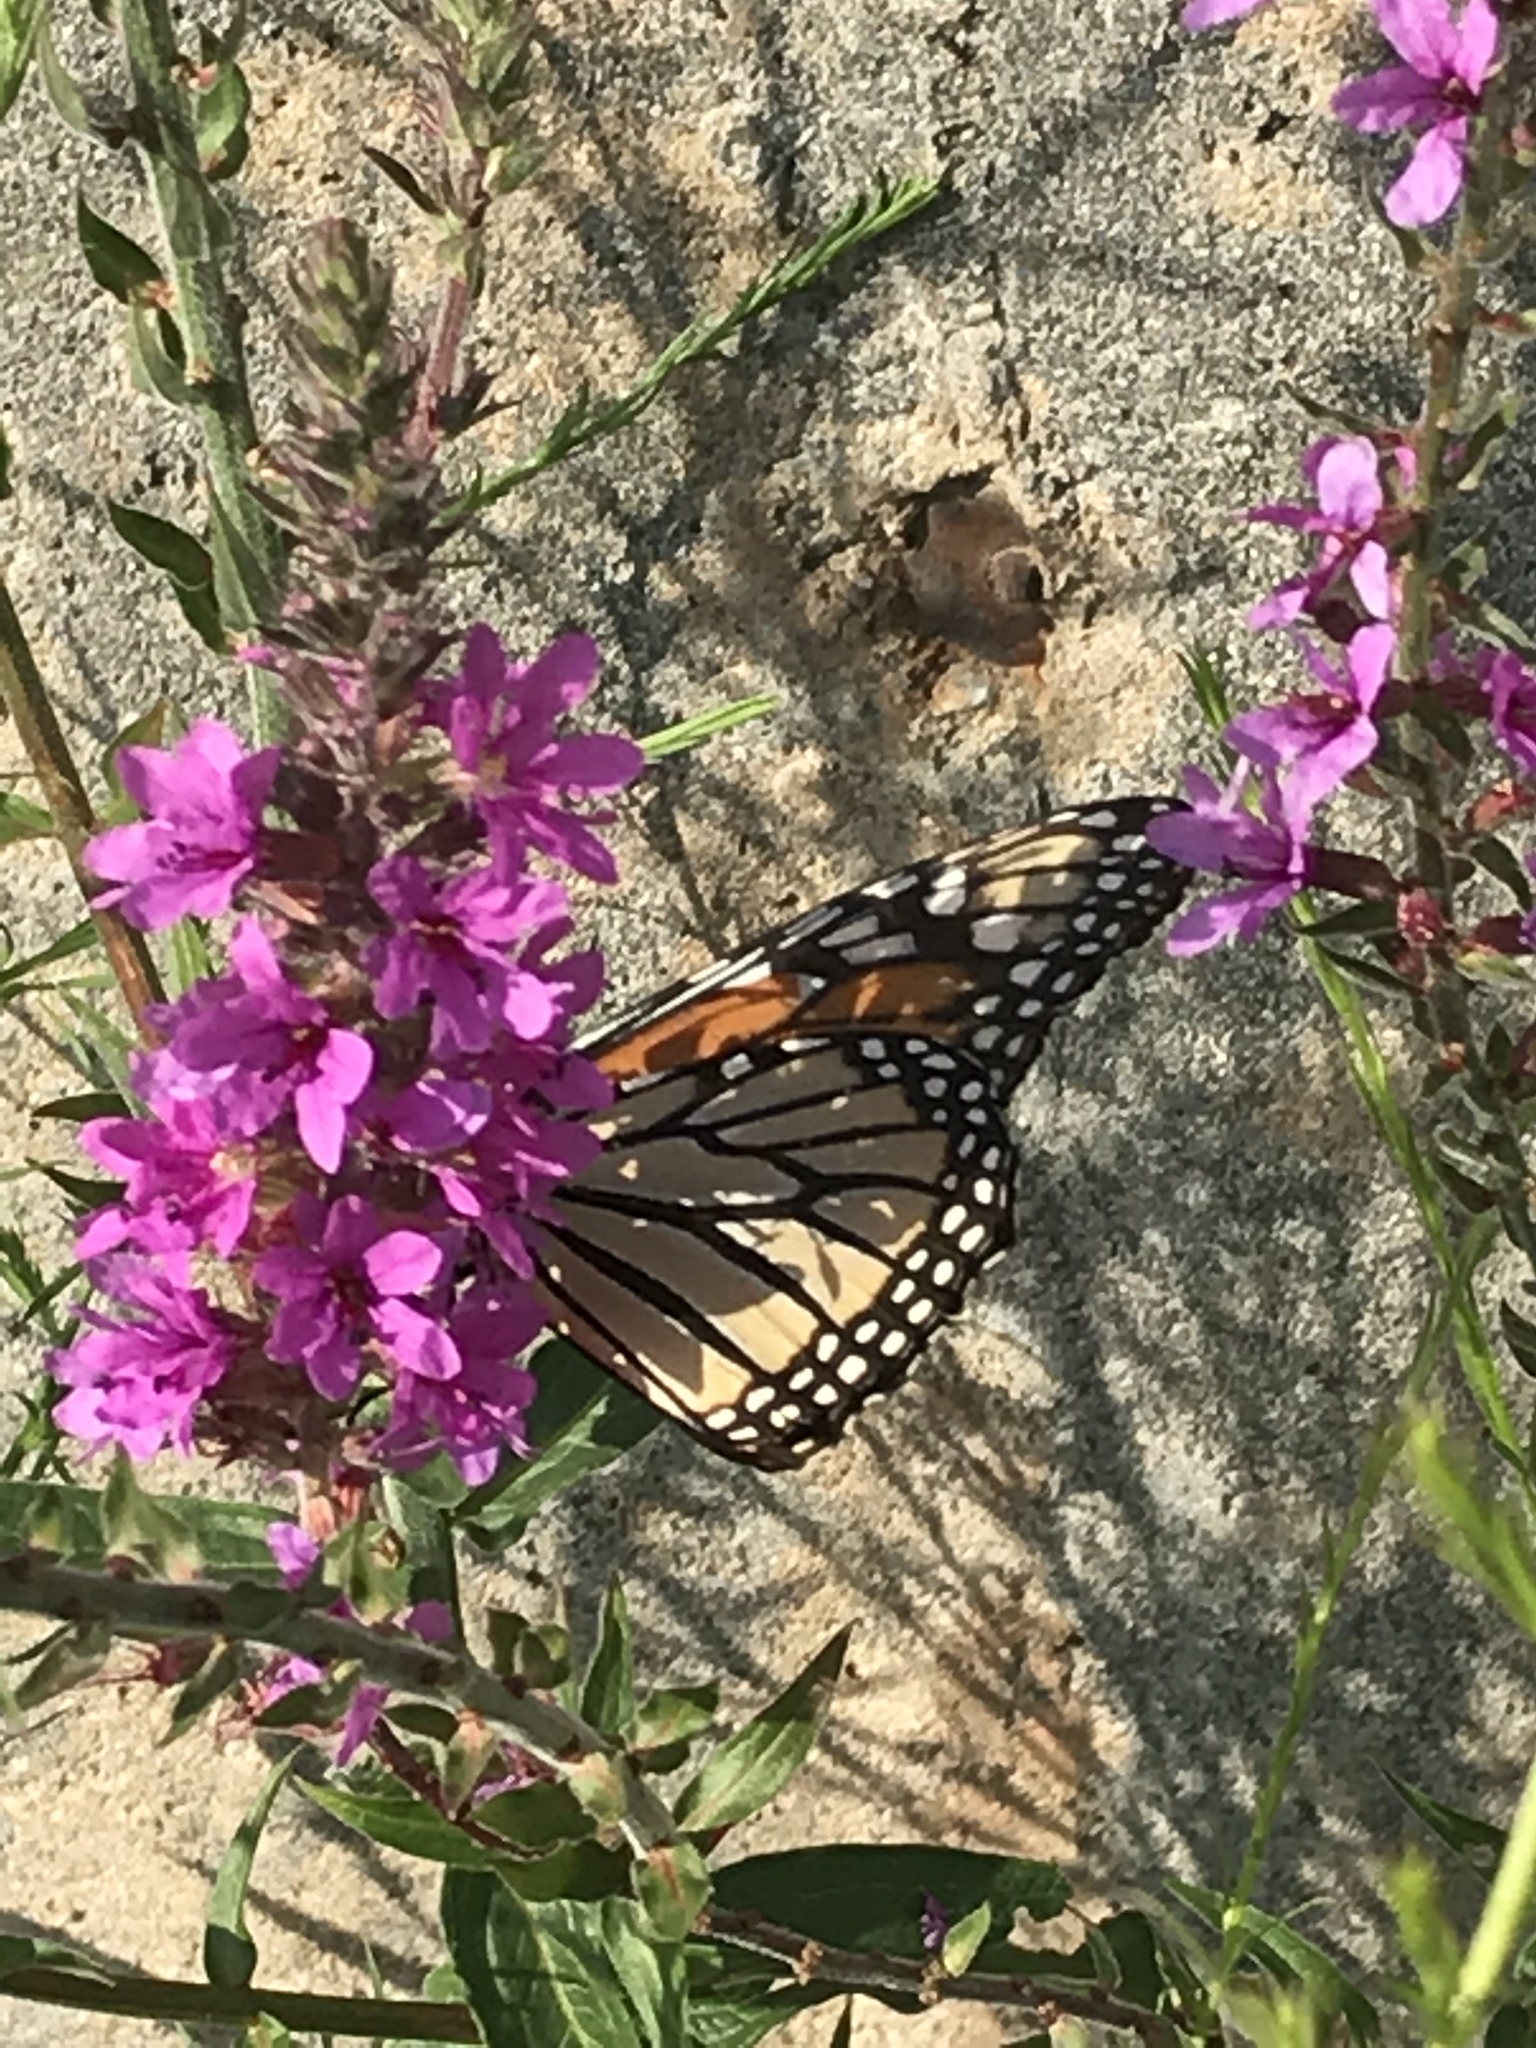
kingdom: Animalia
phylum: Arthropoda
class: Insecta
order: Lepidoptera
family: Nymphalidae
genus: Danaus
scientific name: Danaus plexippus
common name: Monarch
